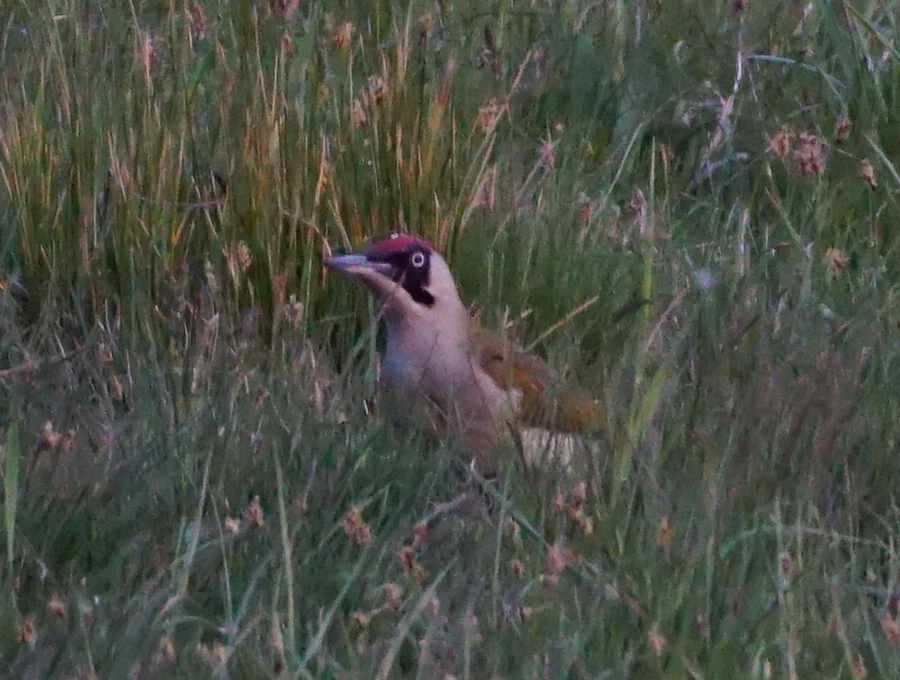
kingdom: Animalia
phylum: Chordata
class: Aves
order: Piciformes
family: Picidae
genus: Picus
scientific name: Picus viridis
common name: European green woodpecker
